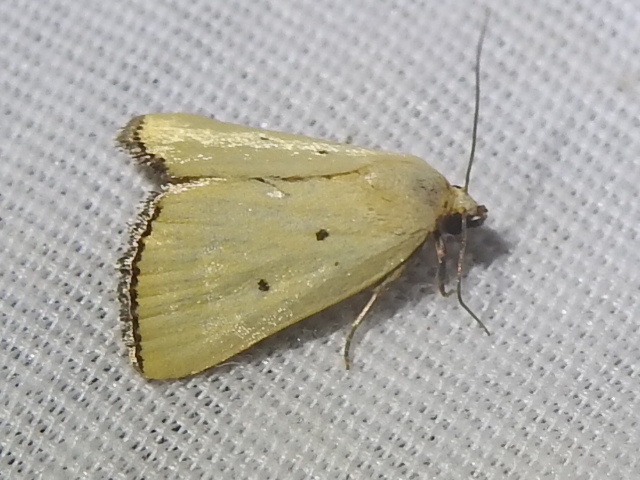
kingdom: Animalia
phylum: Arthropoda
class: Insecta
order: Lepidoptera
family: Noctuidae
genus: Marimatha
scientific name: Marimatha nigrofimbria
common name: Black-bordered lemon moth
